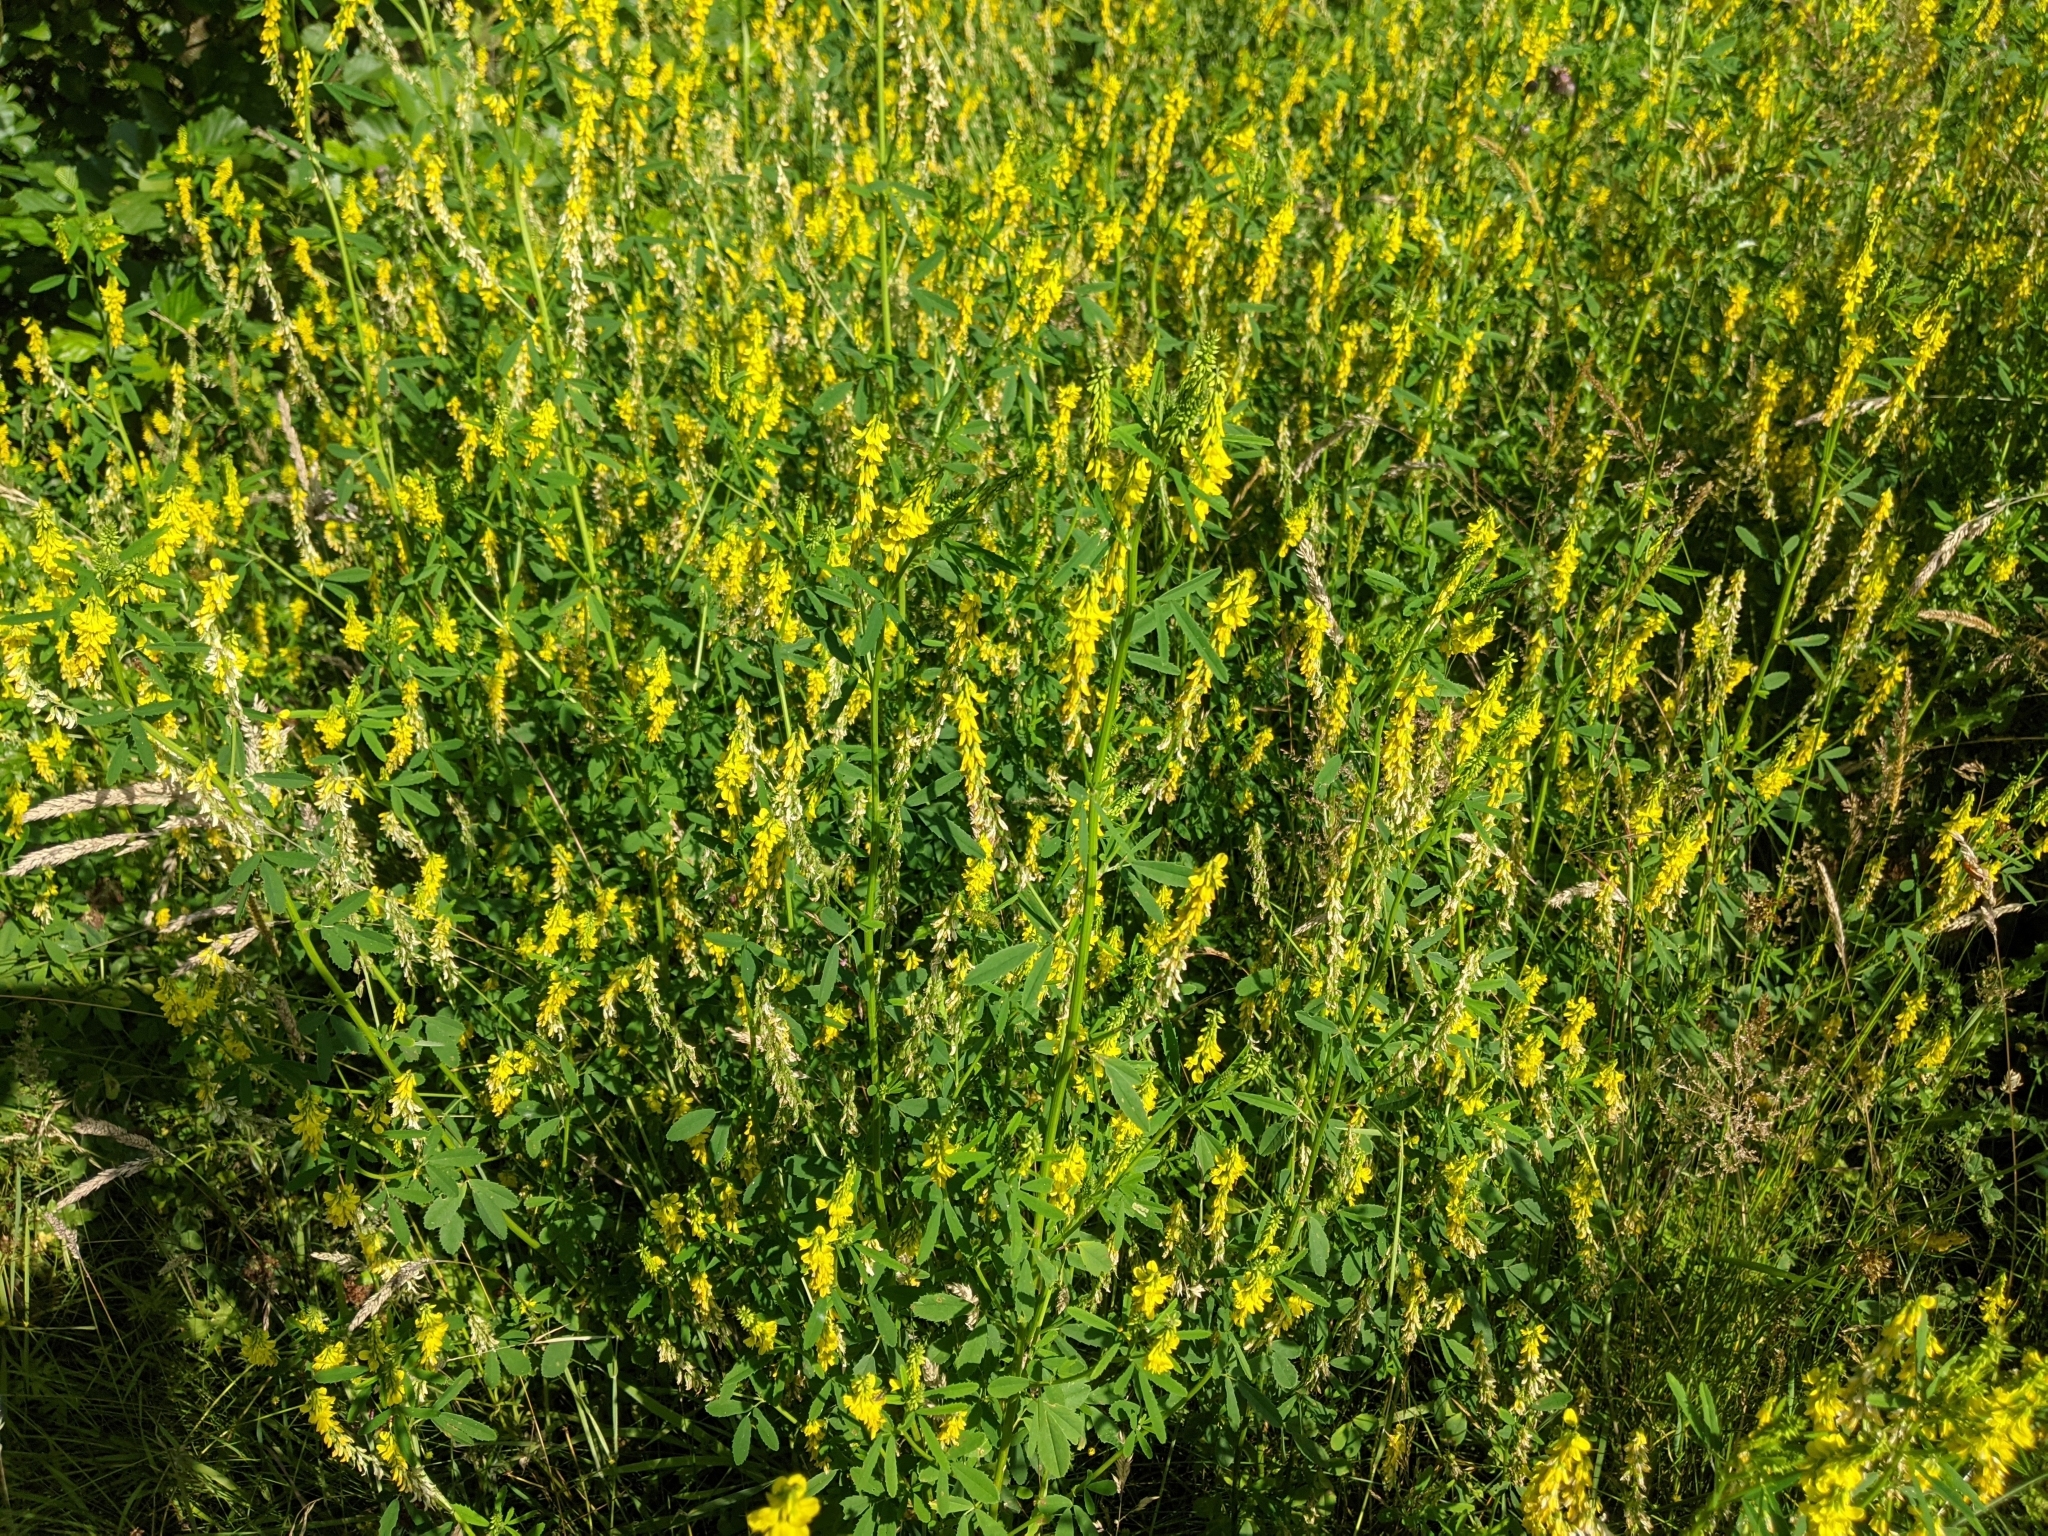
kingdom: Plantae
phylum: Tracheophyta
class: Magnoliopsida
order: Fabales
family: Fabaceae
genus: Melilotus
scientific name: Melilotus officinalis
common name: Sweetclover
